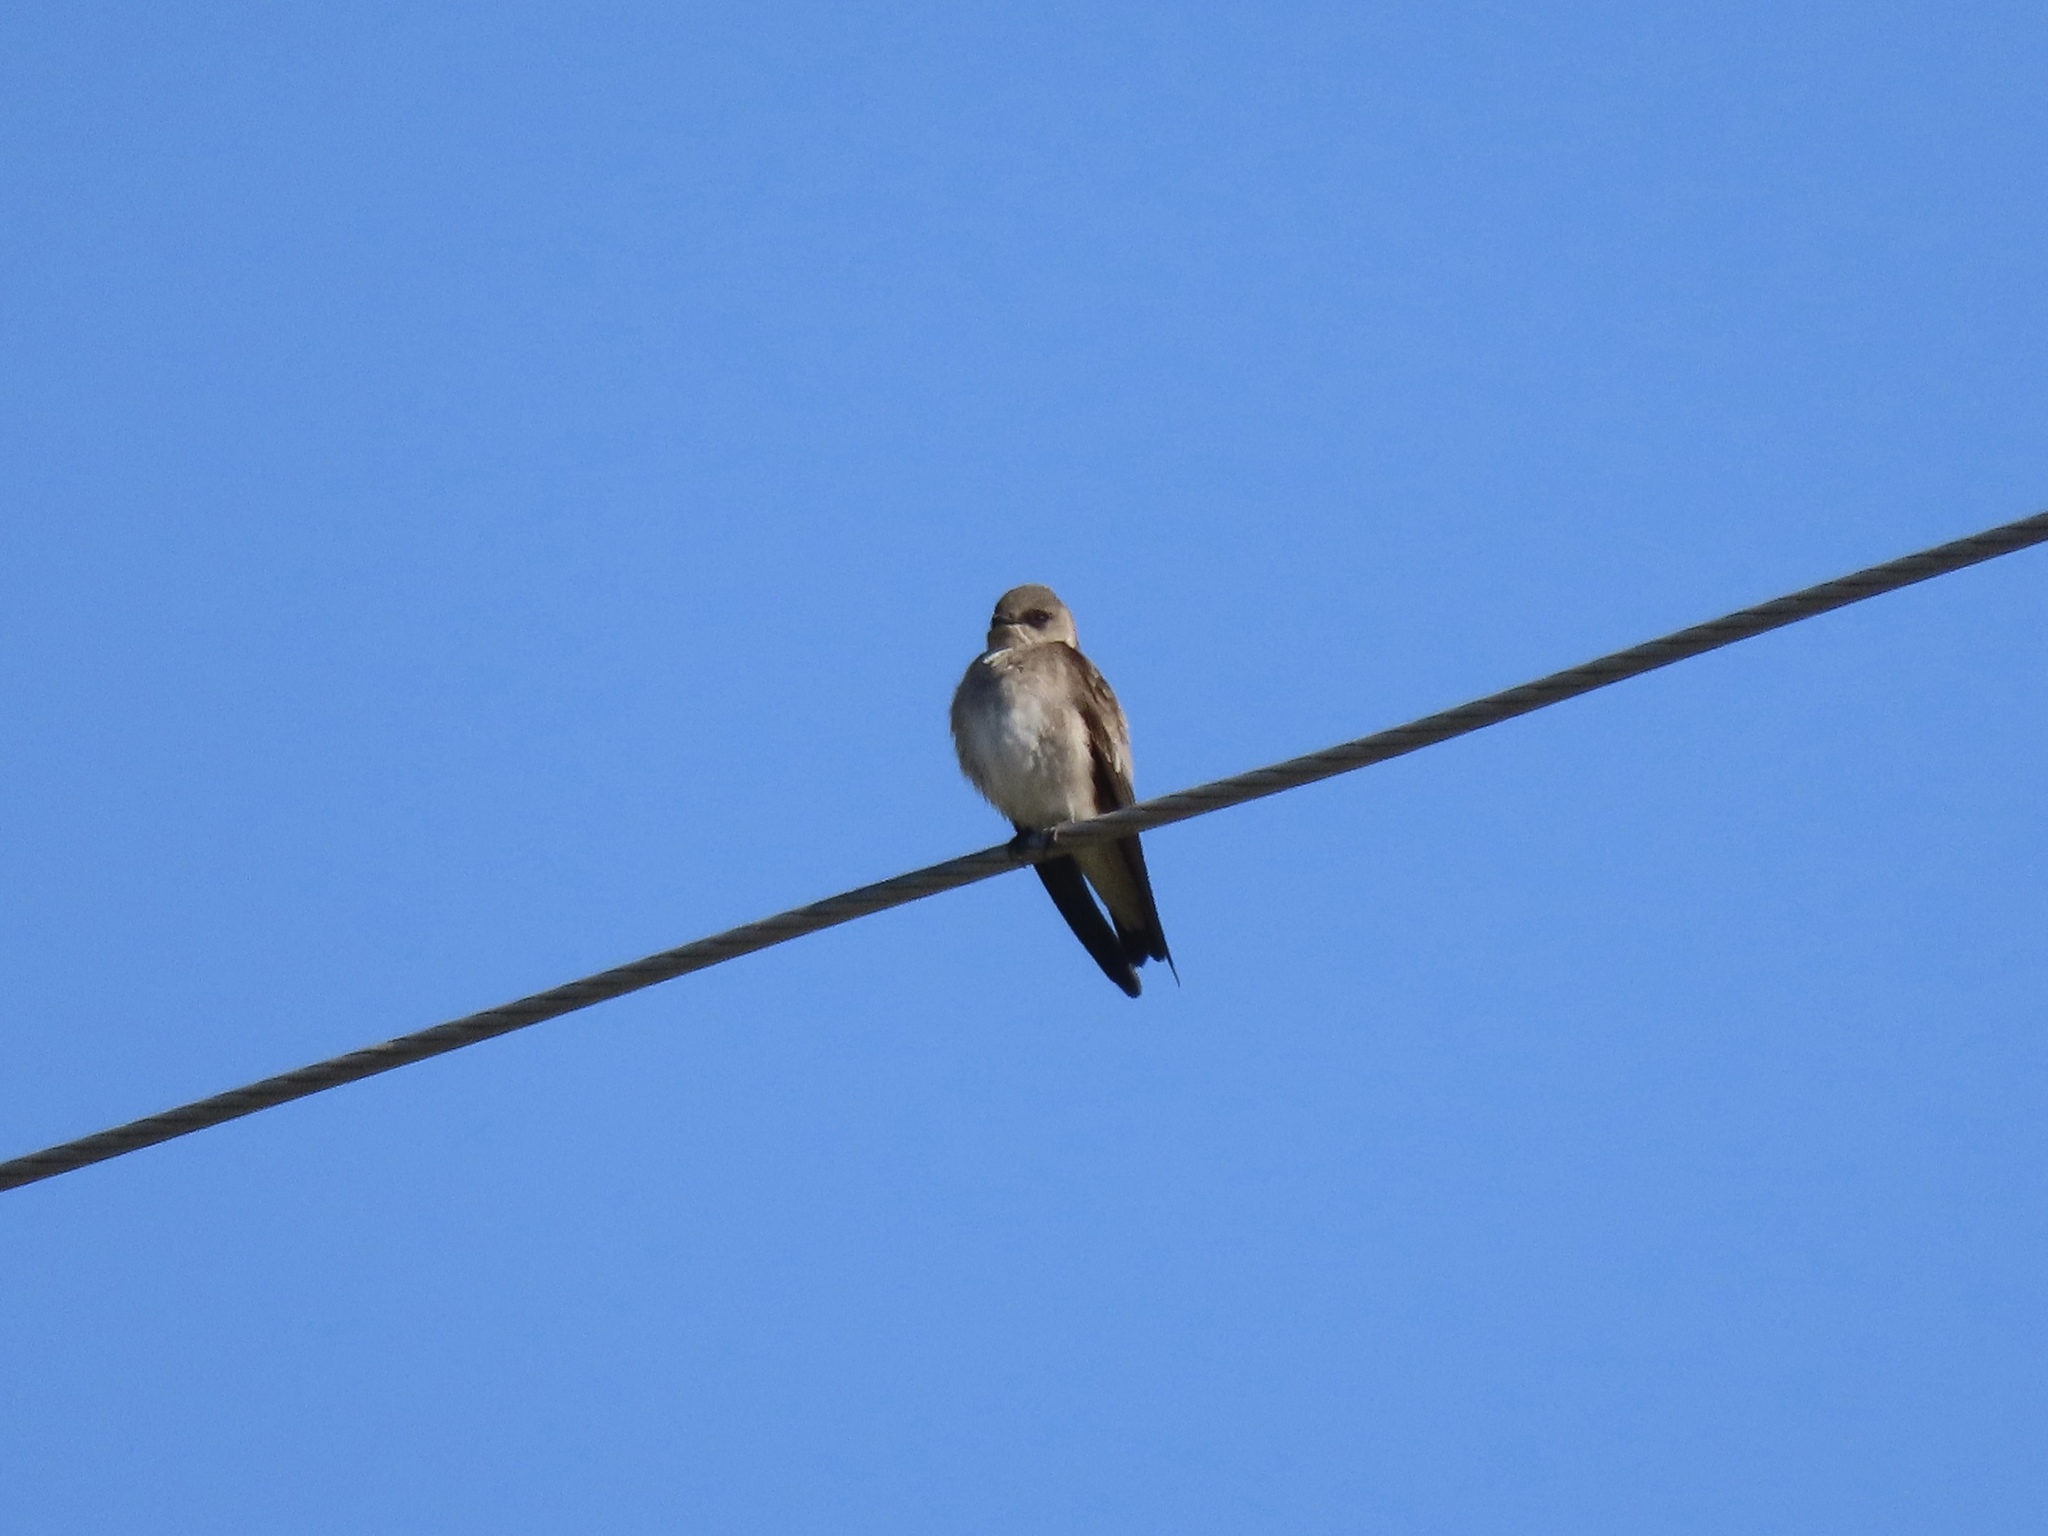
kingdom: Animalia
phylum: Chordata
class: Aves
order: Passeriformes
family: Hirundinidae
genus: Stelgidopteryx
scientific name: Stelgidopteryx serripennis
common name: Northern rough-winged swallow
